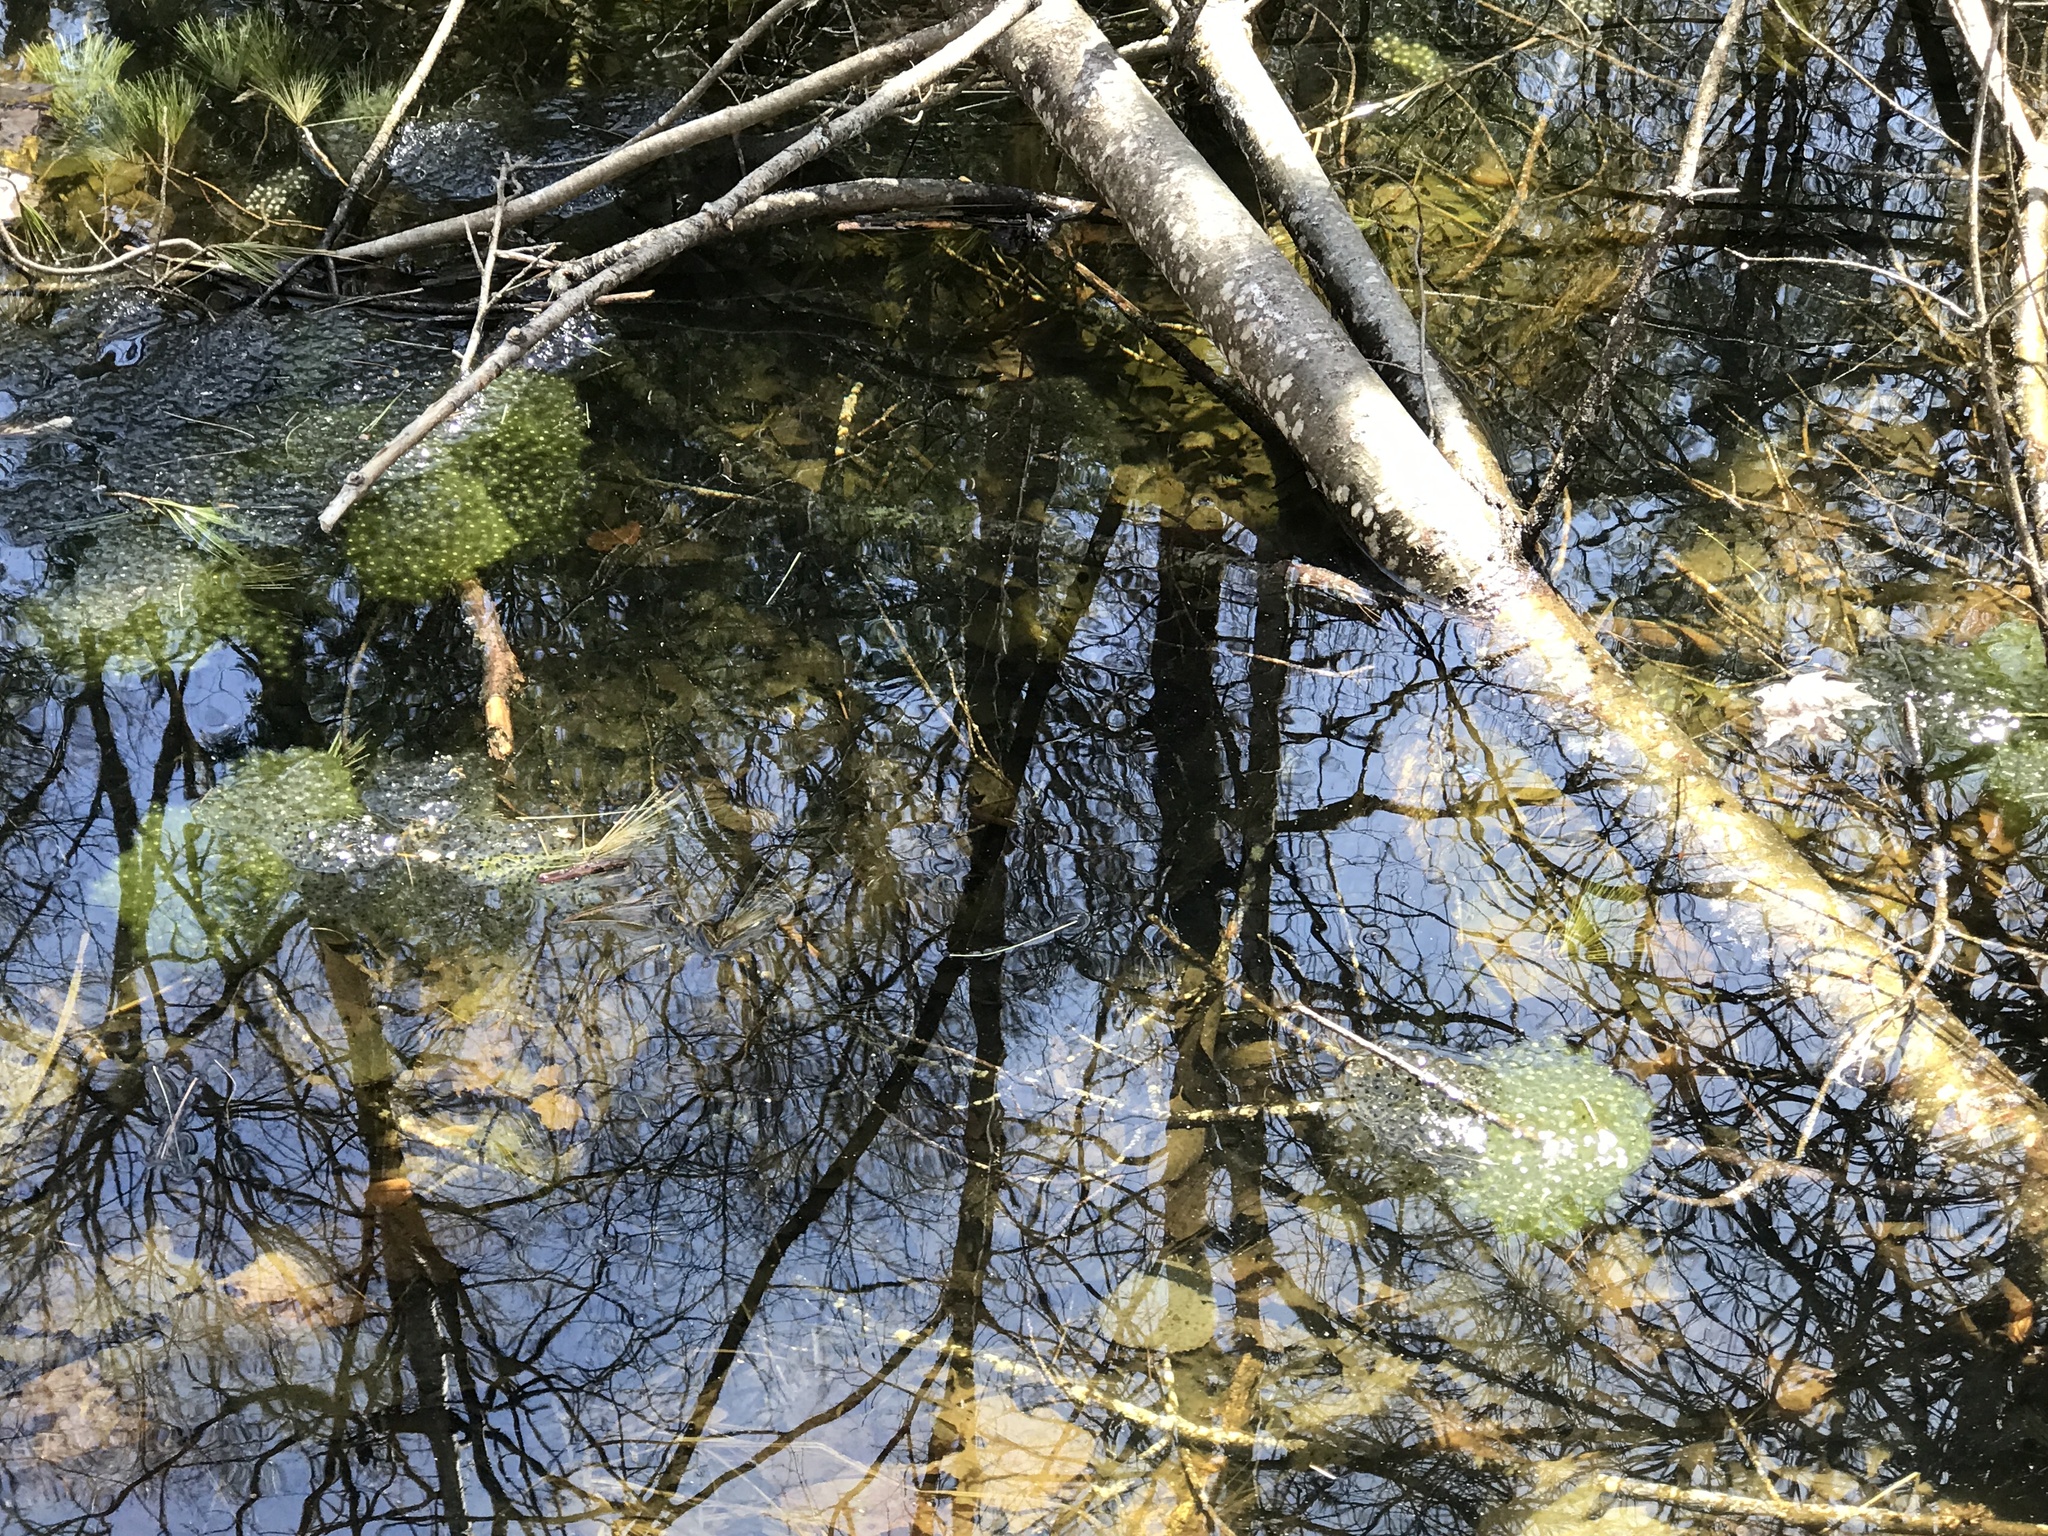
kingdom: Animalia
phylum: Chordata
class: Amphibia
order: Anura
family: Ranidae
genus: Lithobates
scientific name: Lithobates sylvaticus
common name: Wood frog
